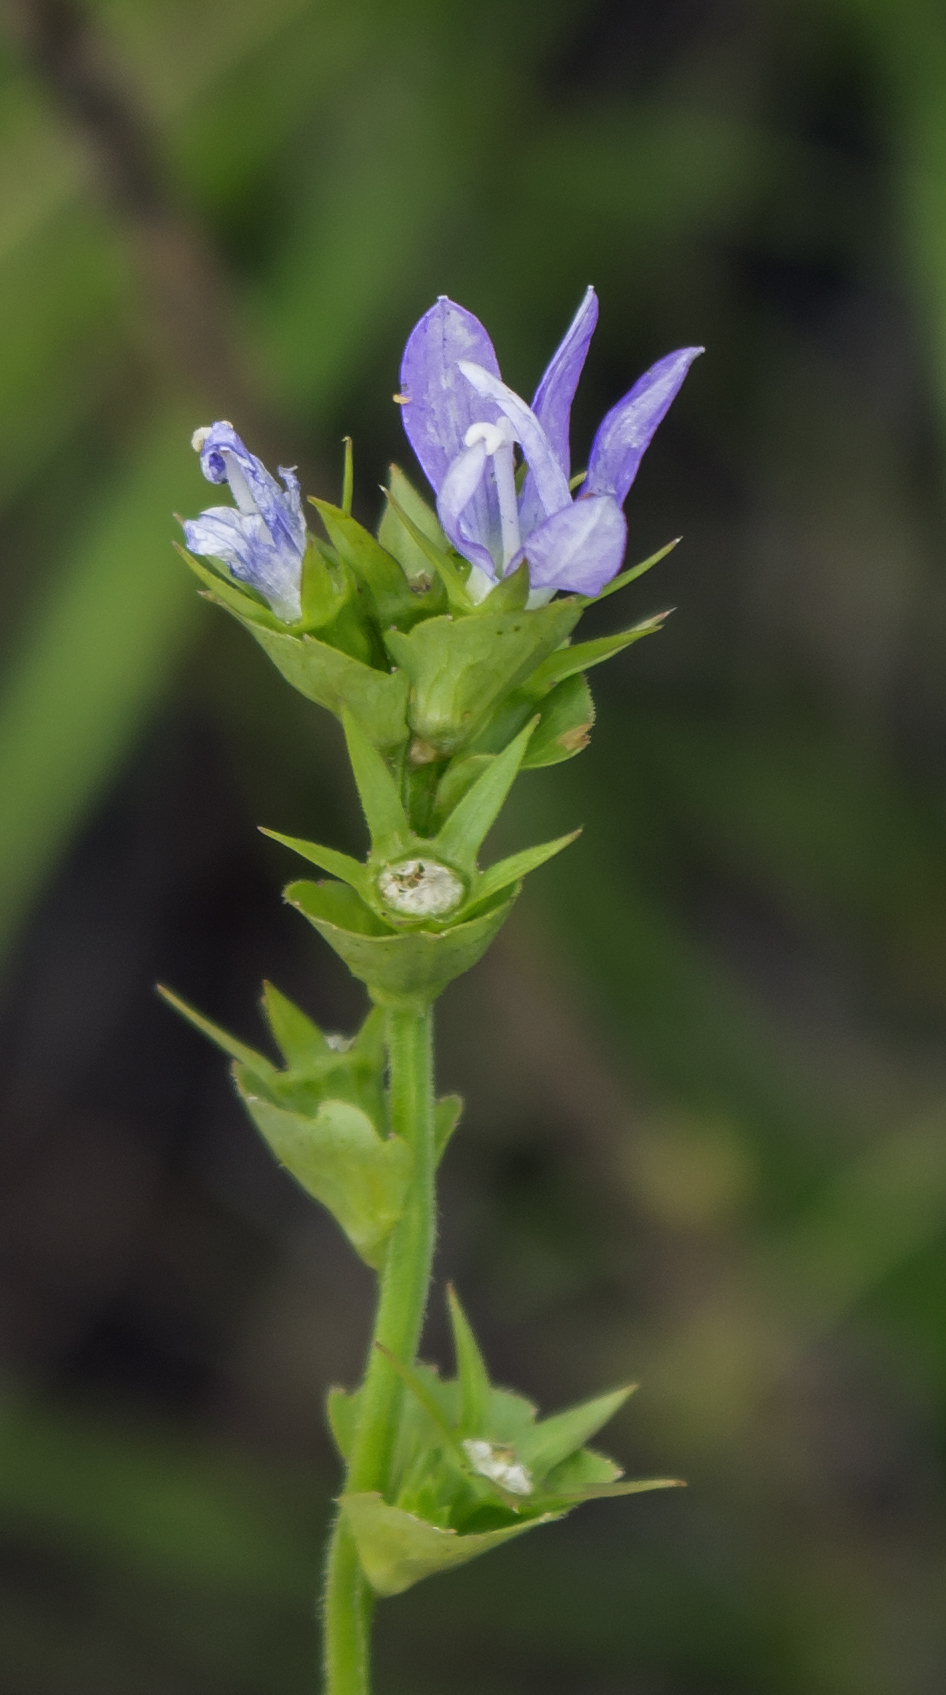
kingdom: Plantae
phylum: Tracheophyta
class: Magnoliopsida
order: Asterales
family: Campanulaceae
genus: Triodanis
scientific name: Triodanis perfoliata
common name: Clasping venus' looking-glass
